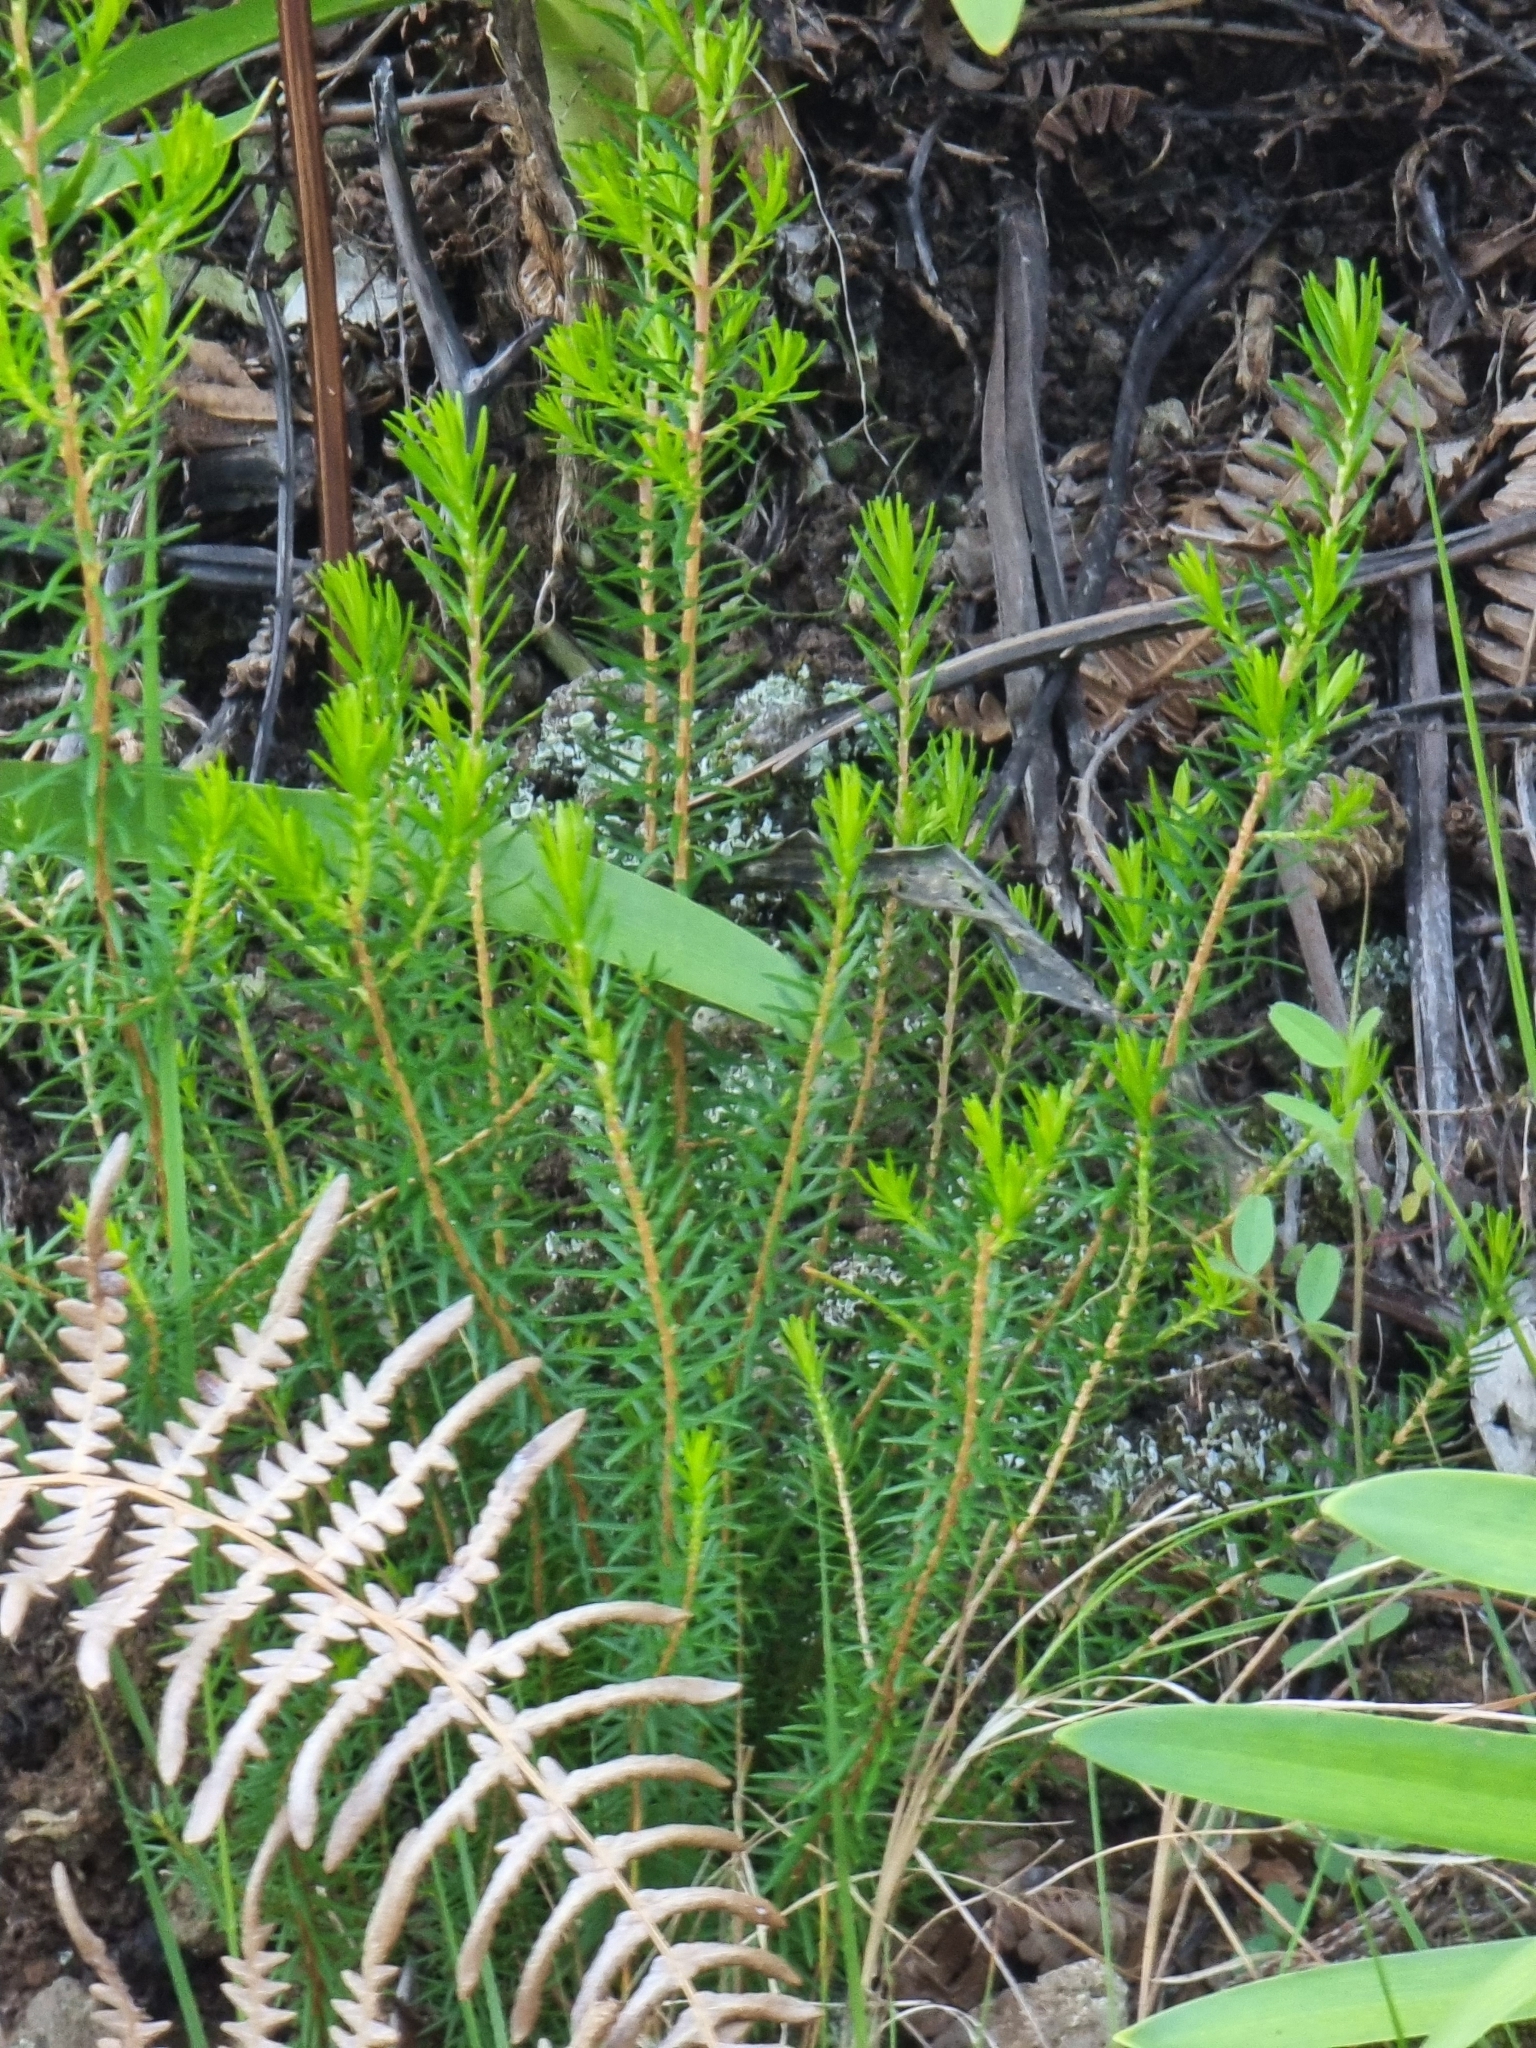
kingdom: Plantae
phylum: Tracheophyta
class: Magnoliopsida
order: Ericales
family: Ericaceae
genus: Erica
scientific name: Erica platycodon
